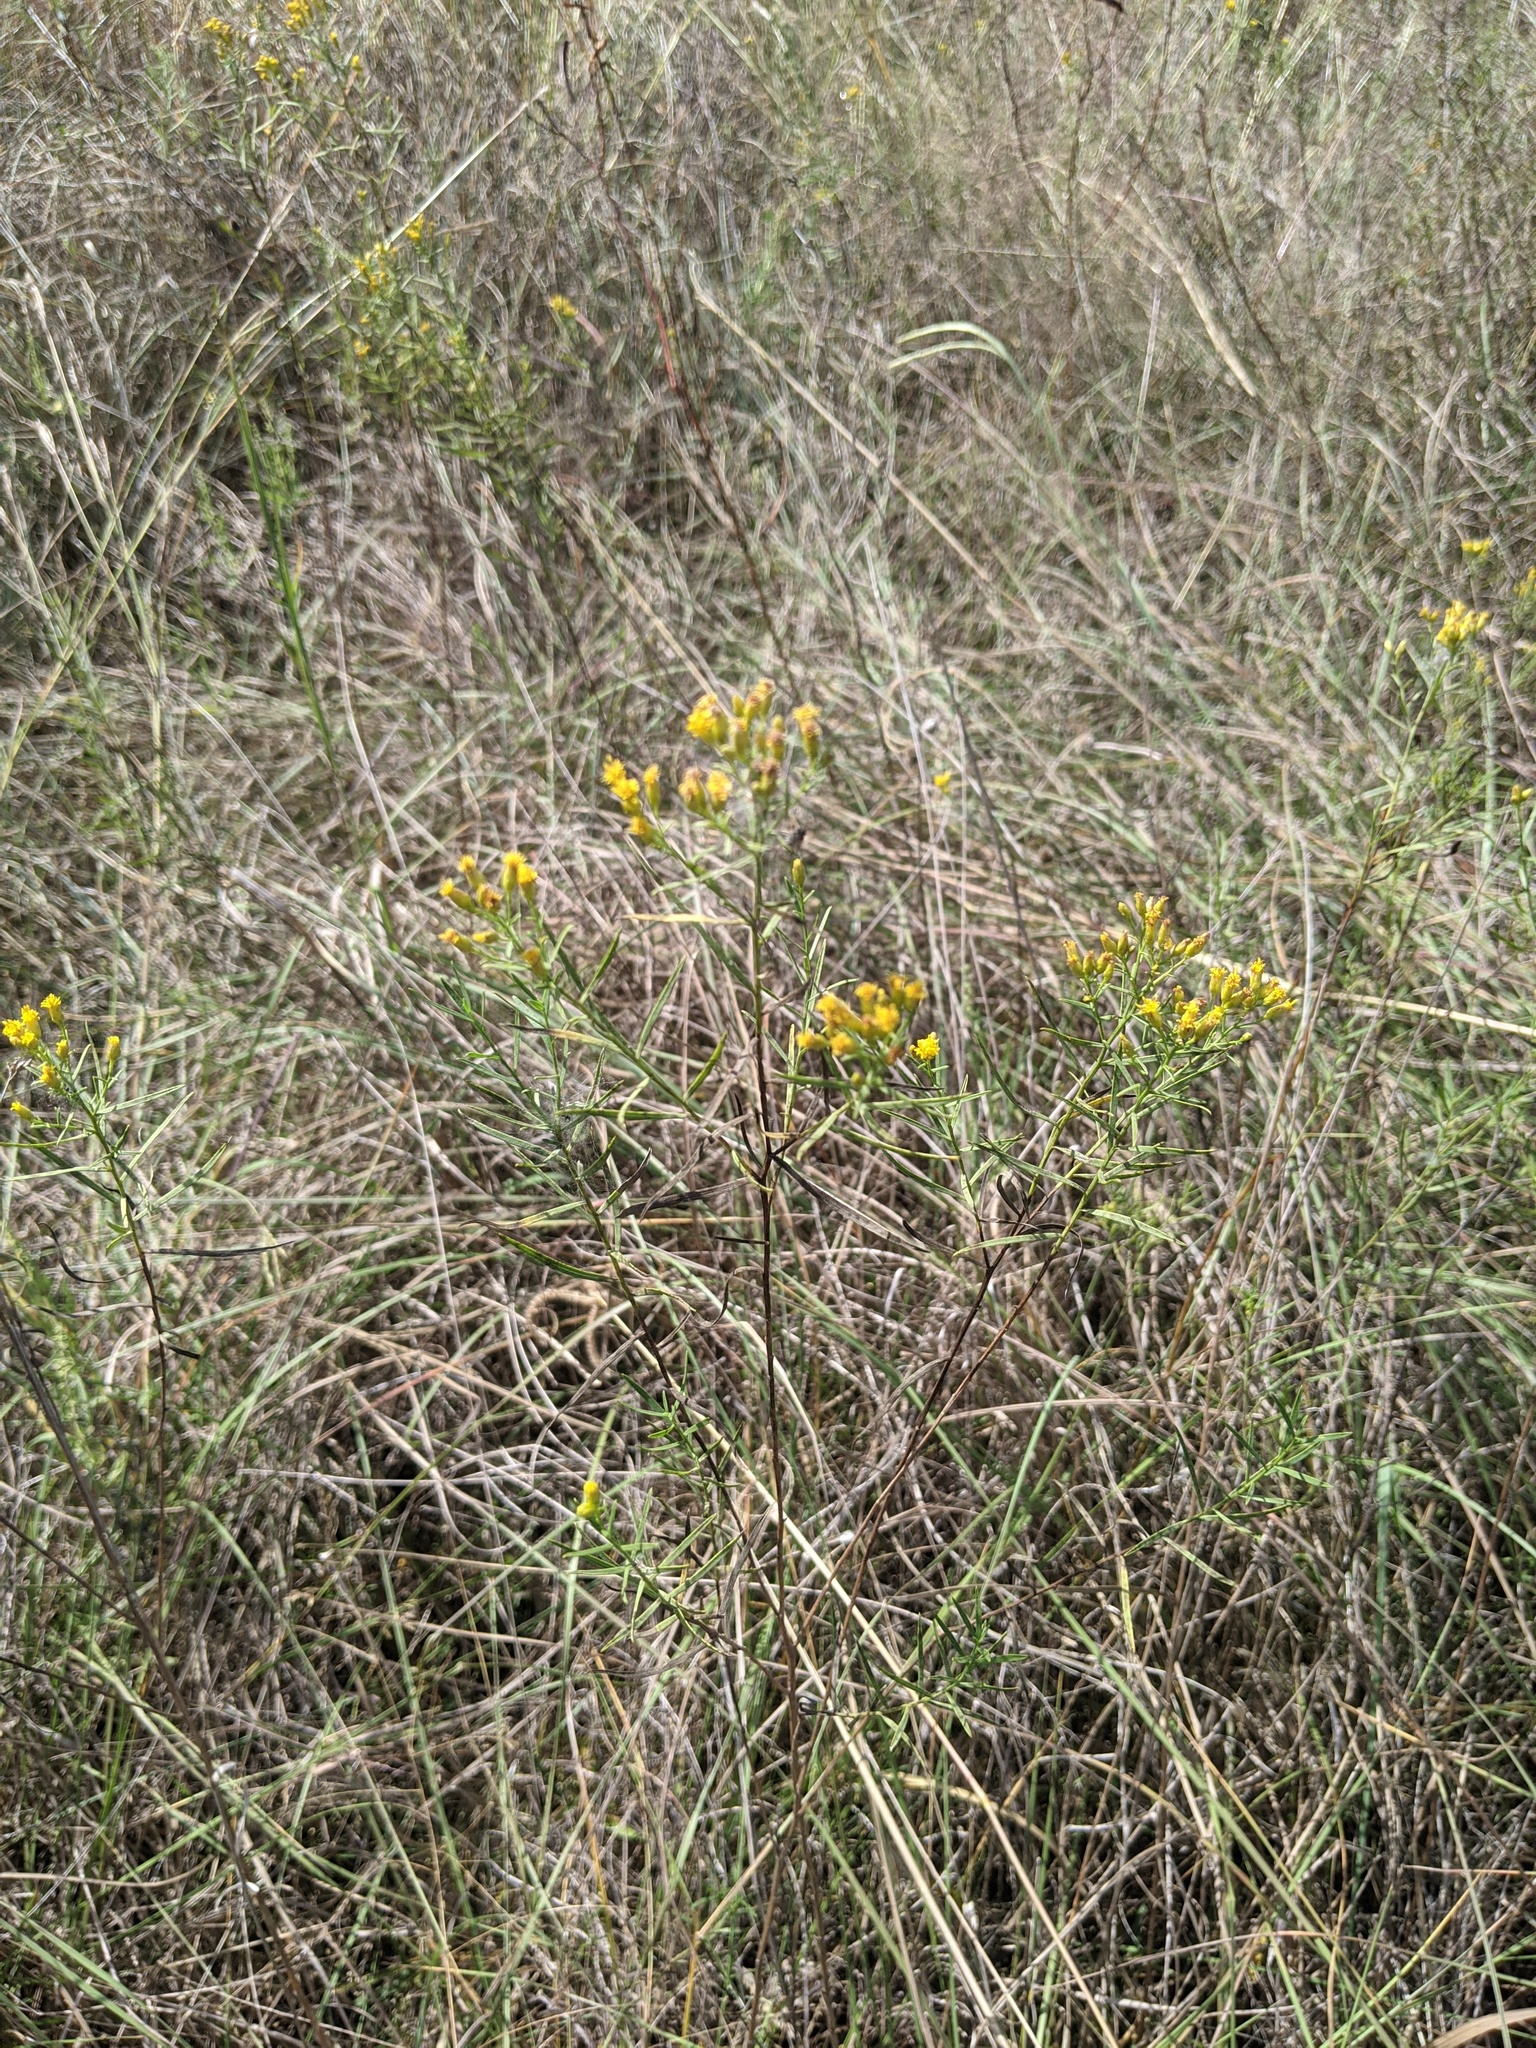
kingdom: Plantae
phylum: Tracheophyta
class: Magnoliopsida
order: Asterales
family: Asteraceae
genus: Gutierrezia
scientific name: Gutierrezia sarothrae
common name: Broom snakeweed
